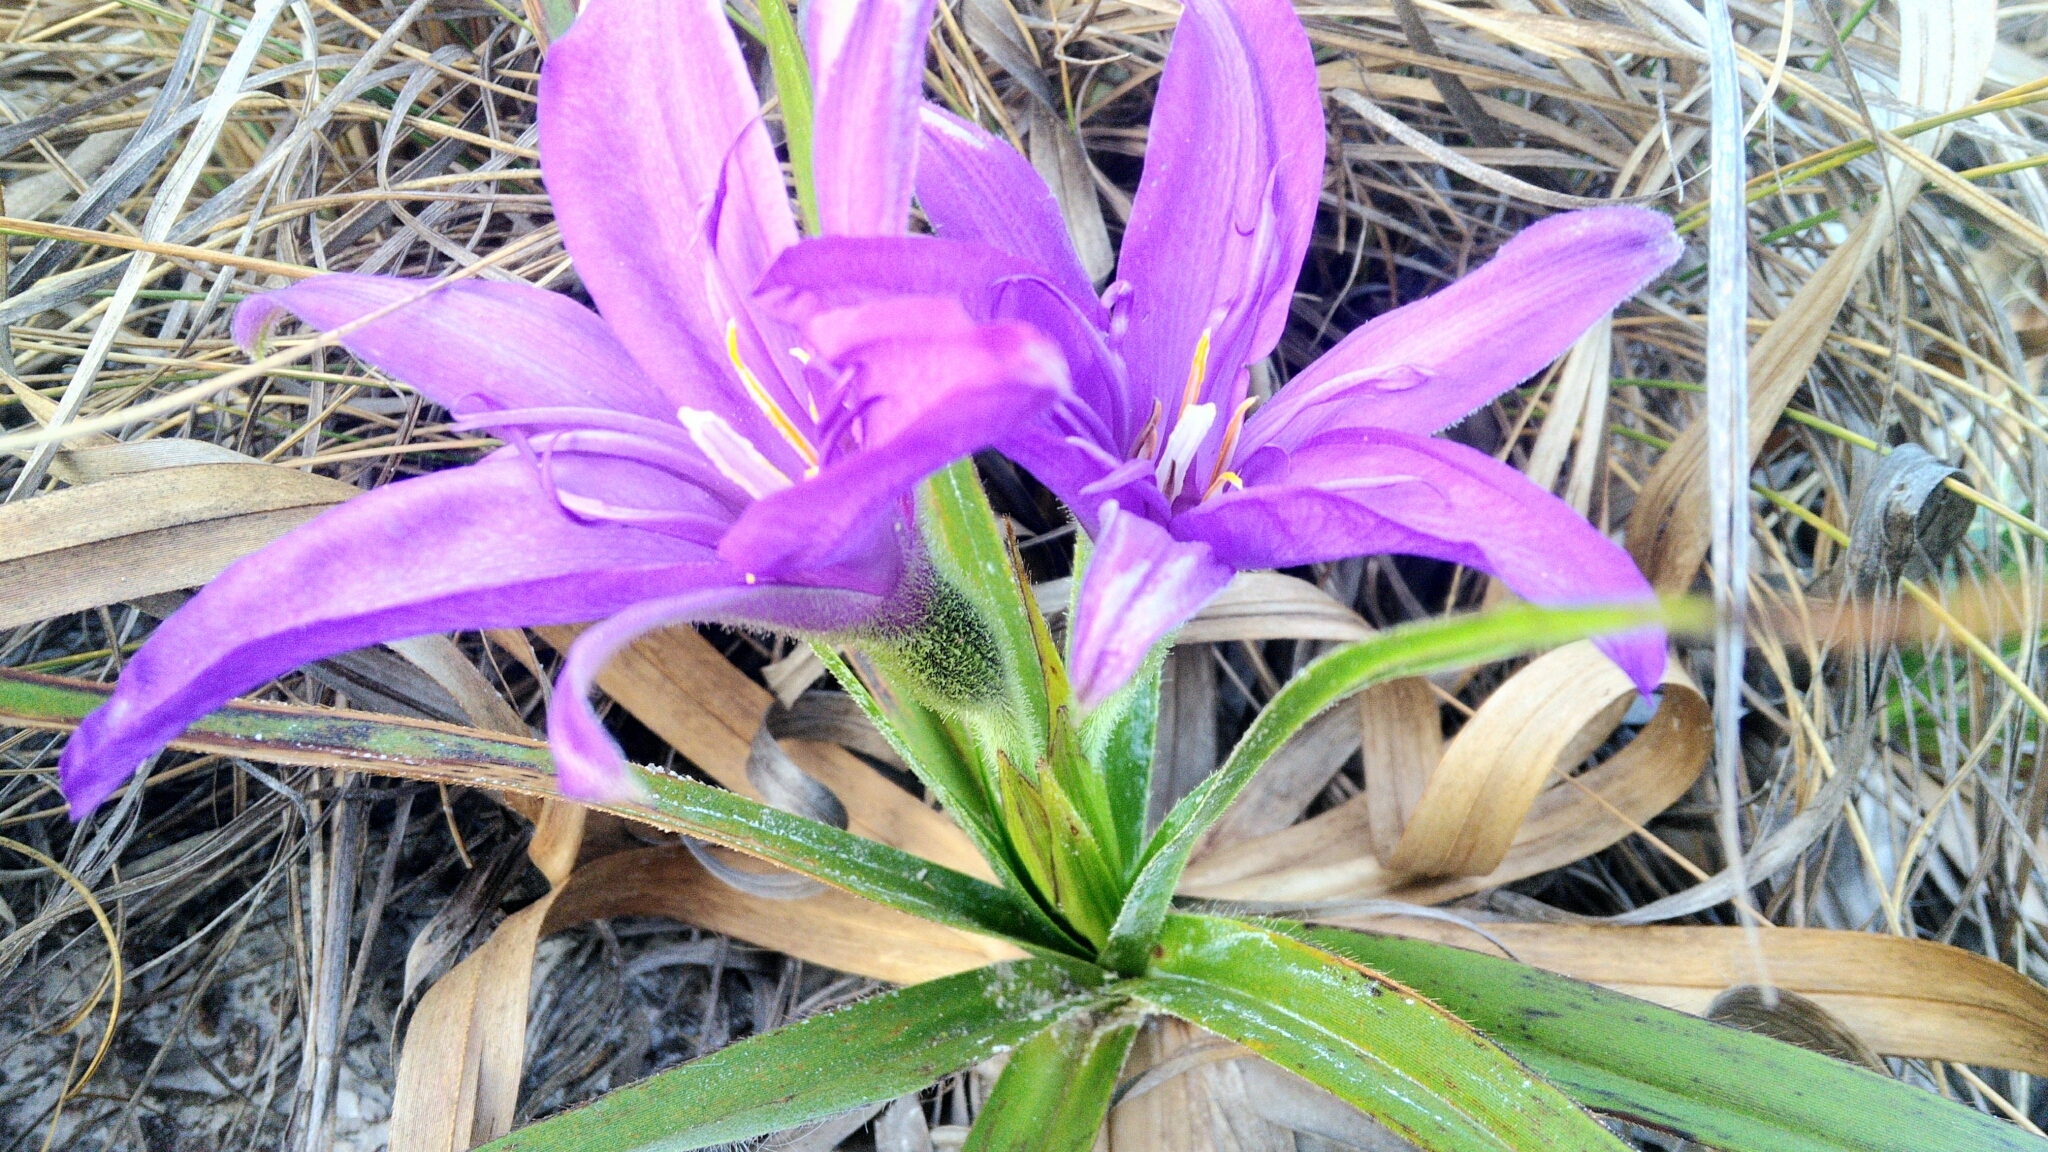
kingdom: Plantae
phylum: Tracheophyta
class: Liliopsida
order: Pandanales
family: Velloziaceae
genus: Barbacenia
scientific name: Barbacenia fulva
